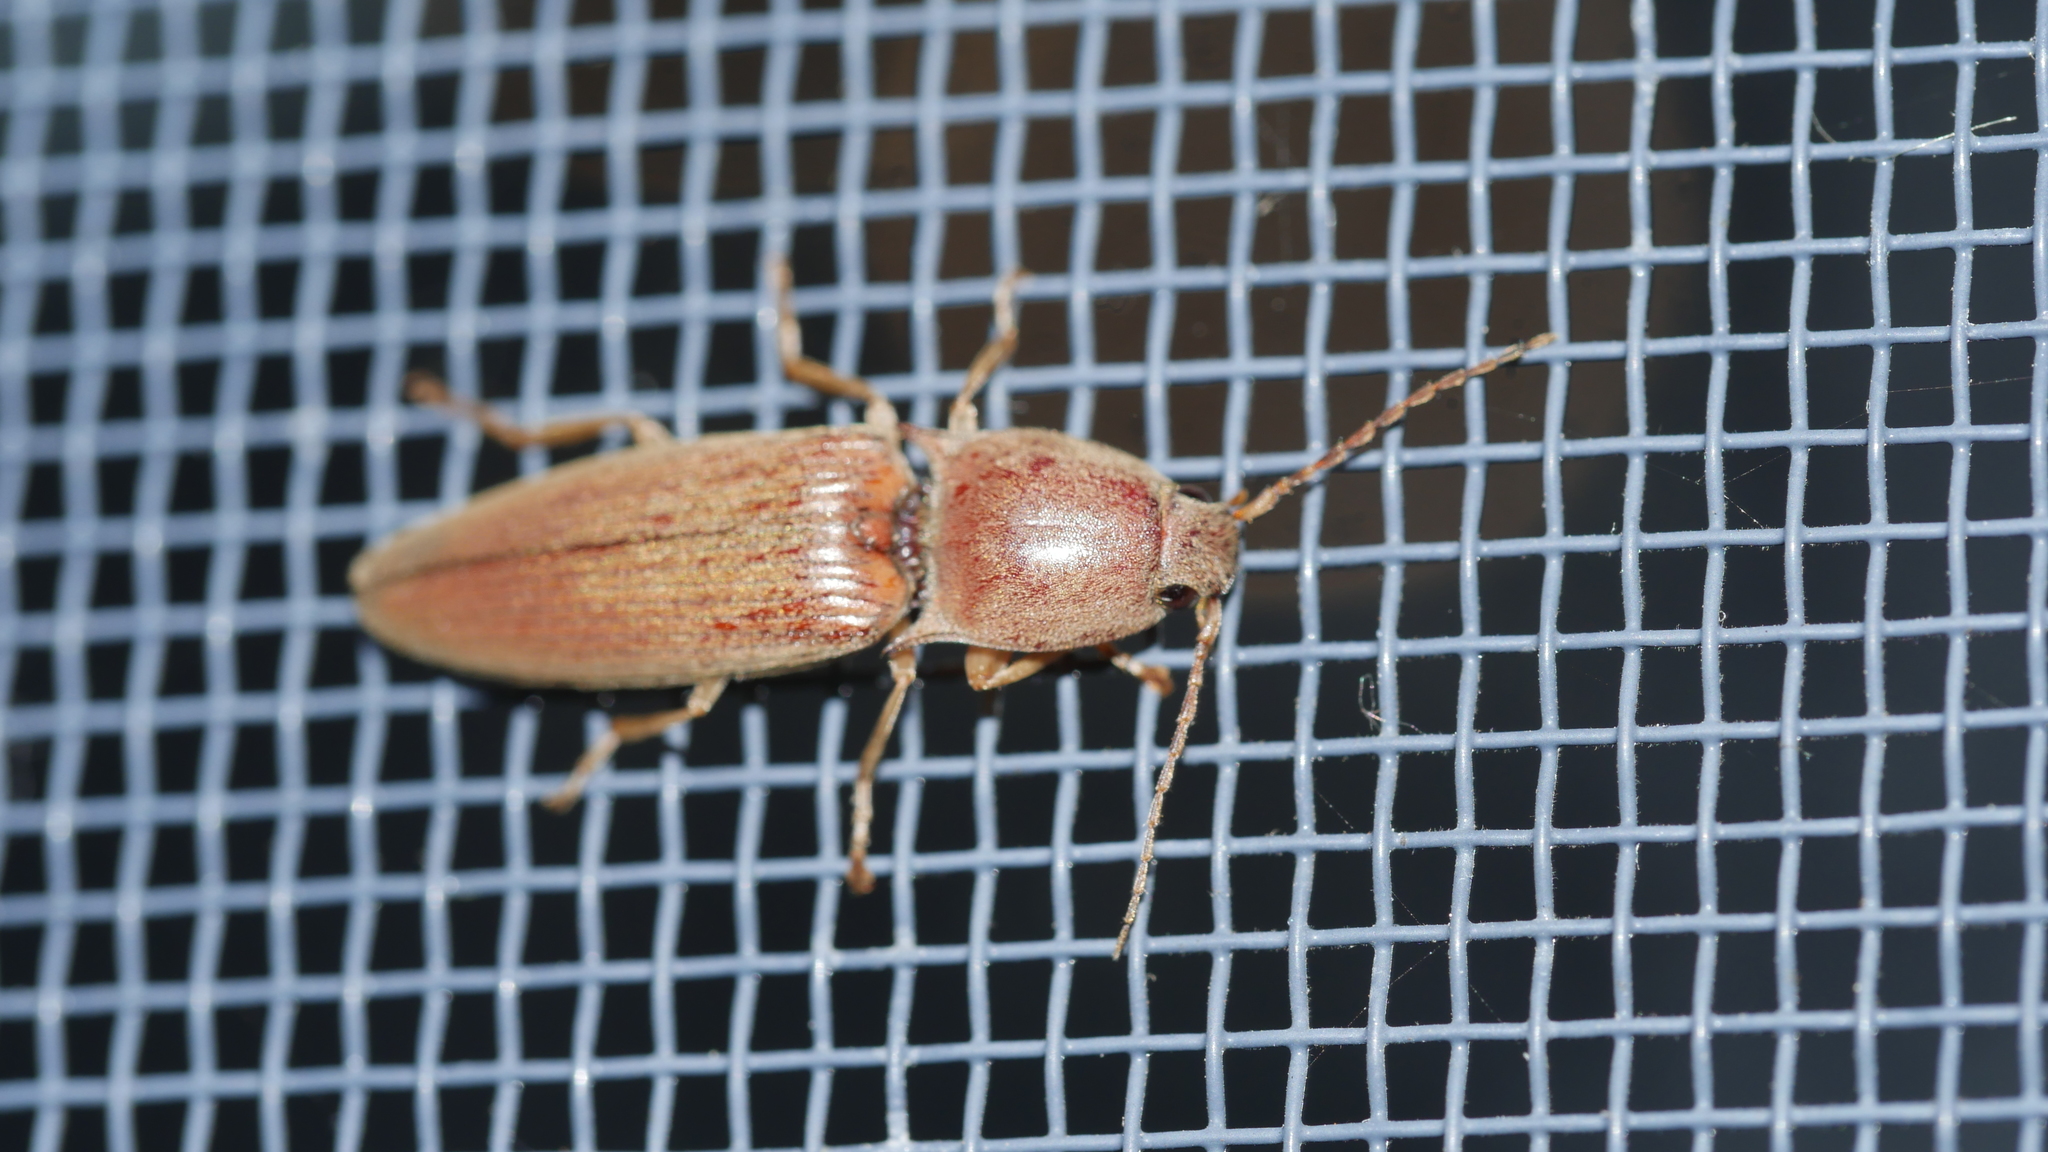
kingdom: Animalia
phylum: Arthropoda
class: Insecta
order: Coleoptera
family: Elateridae
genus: Monocrepidius
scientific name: Monocrepidius lividus
